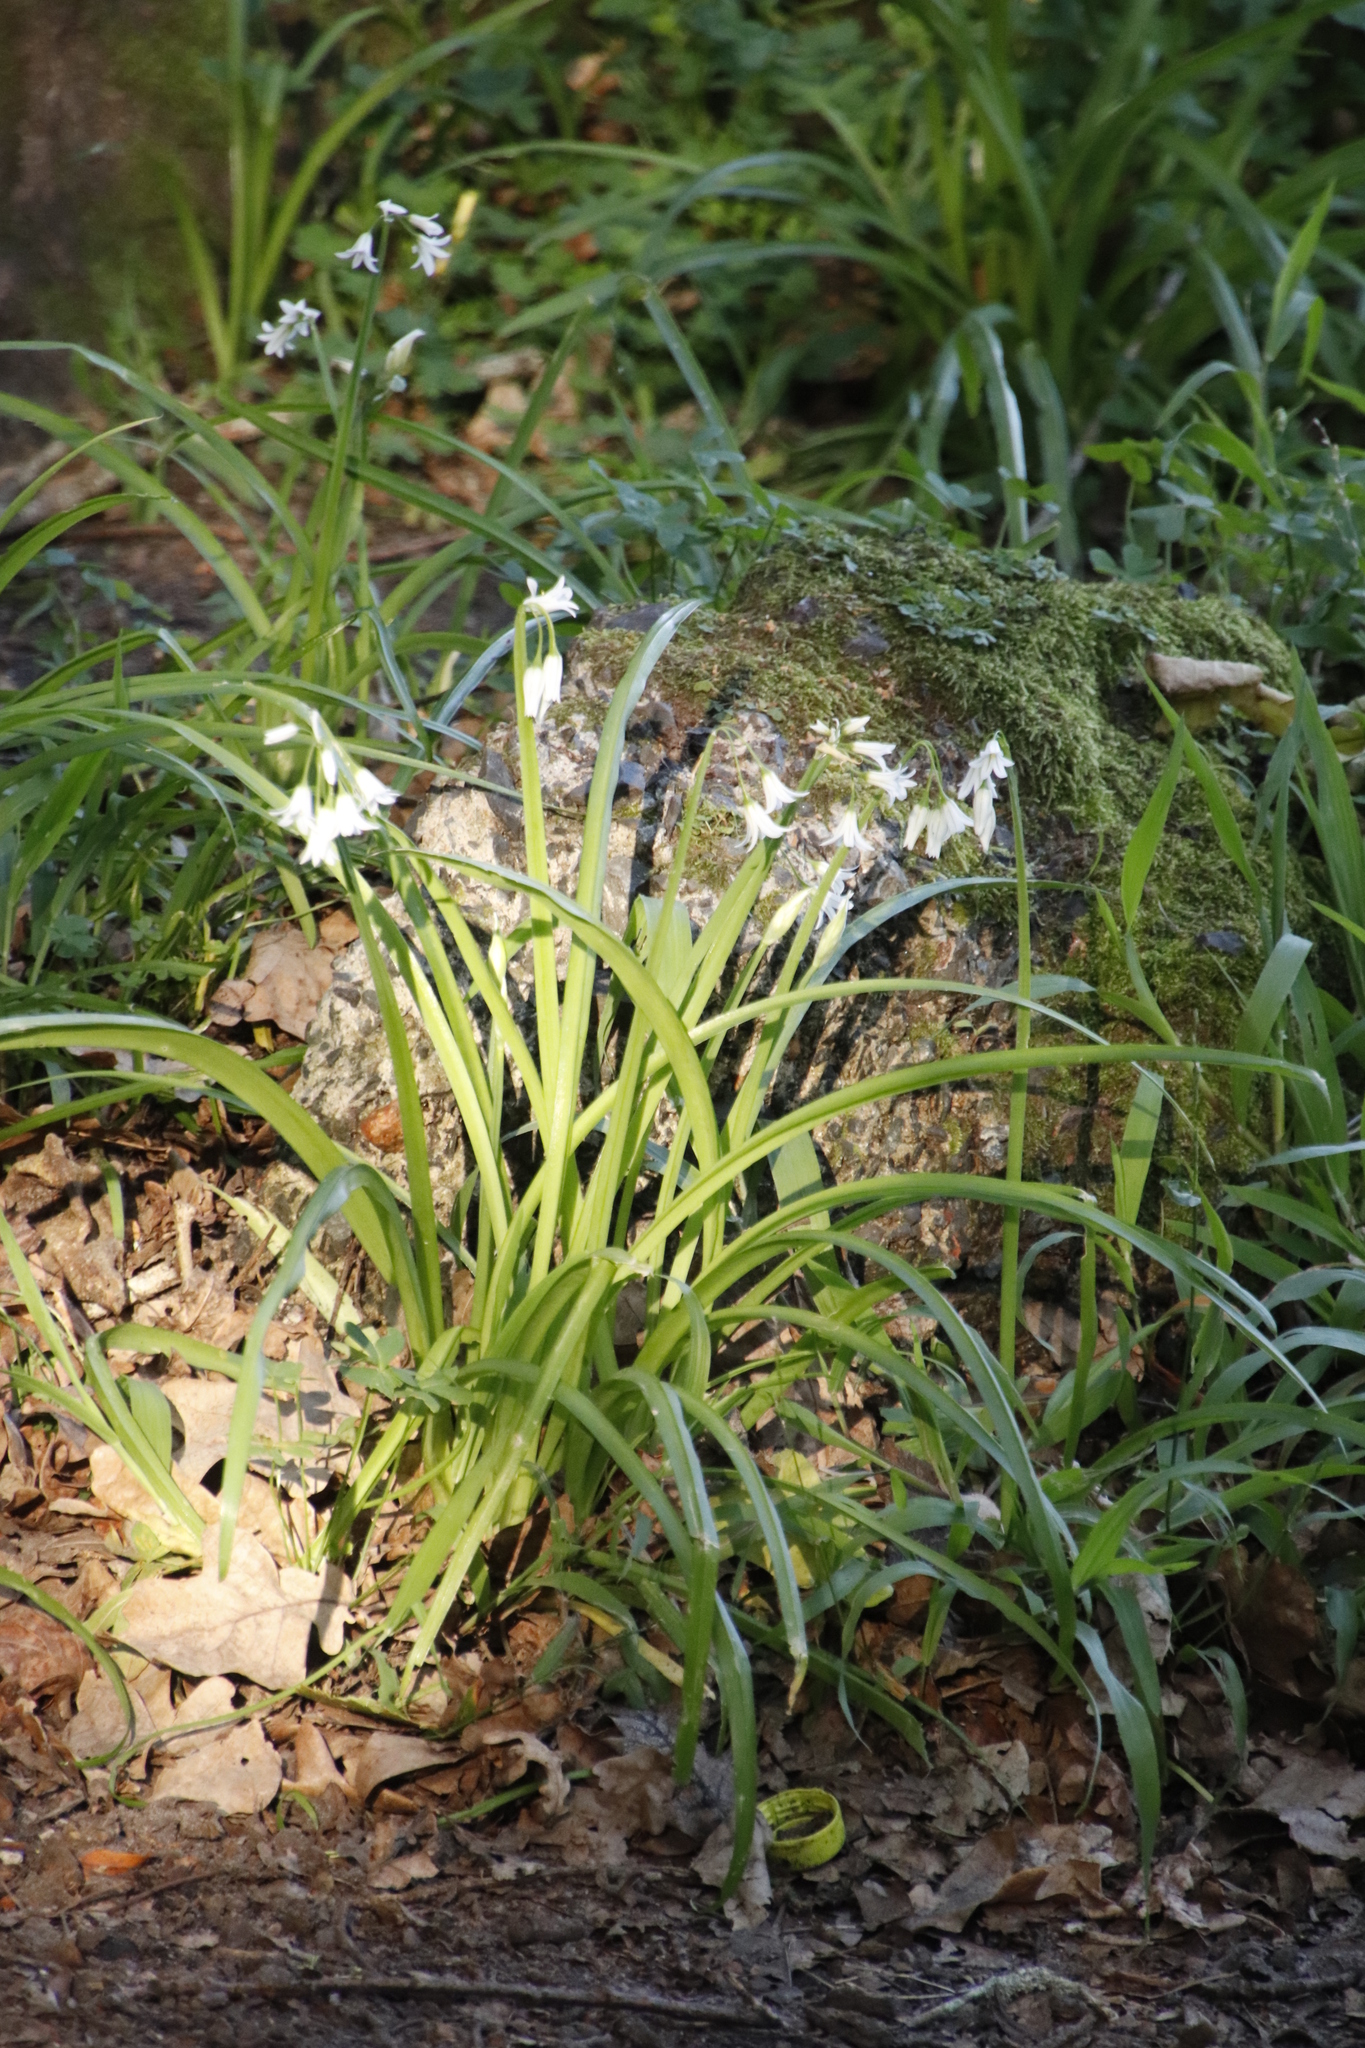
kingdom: Plantae
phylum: Tracheophyta
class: Liliopsida
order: Asparagales
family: Amaryllidaceae
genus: Allium
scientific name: Allium triquetrum
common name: Three-cornered garlic
